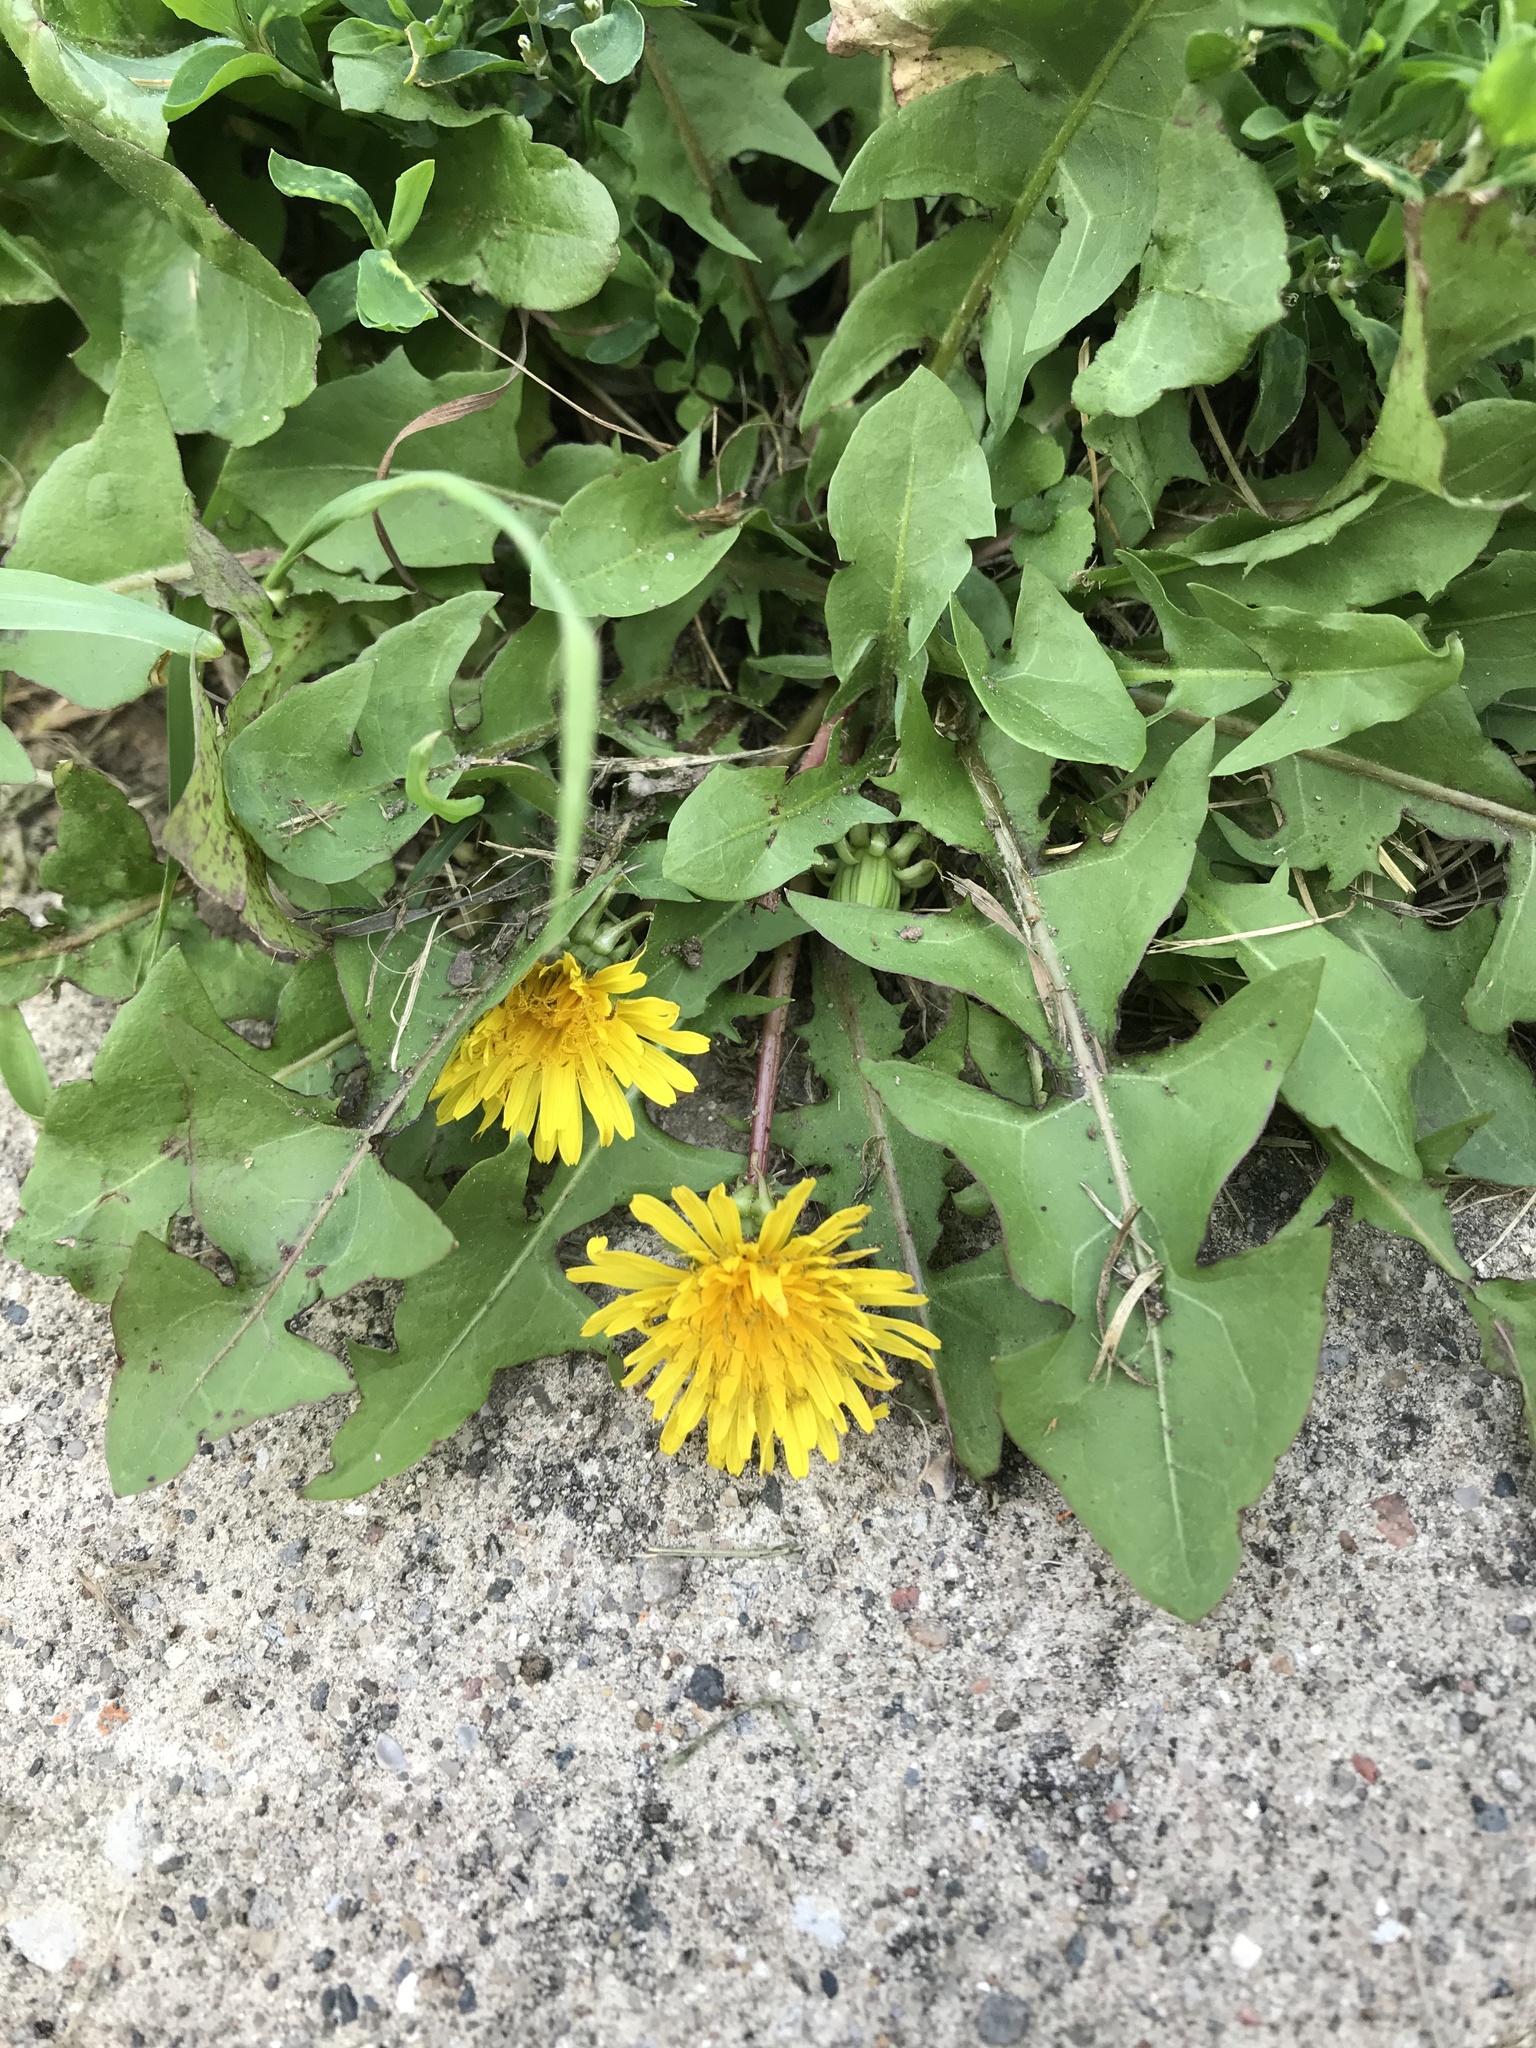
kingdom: Plantae
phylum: Tracheophyta
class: Magnoliopsida
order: Asterales
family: Asteraceae
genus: Taraxacum
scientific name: Taraxacum officinale
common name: Common dandelion
